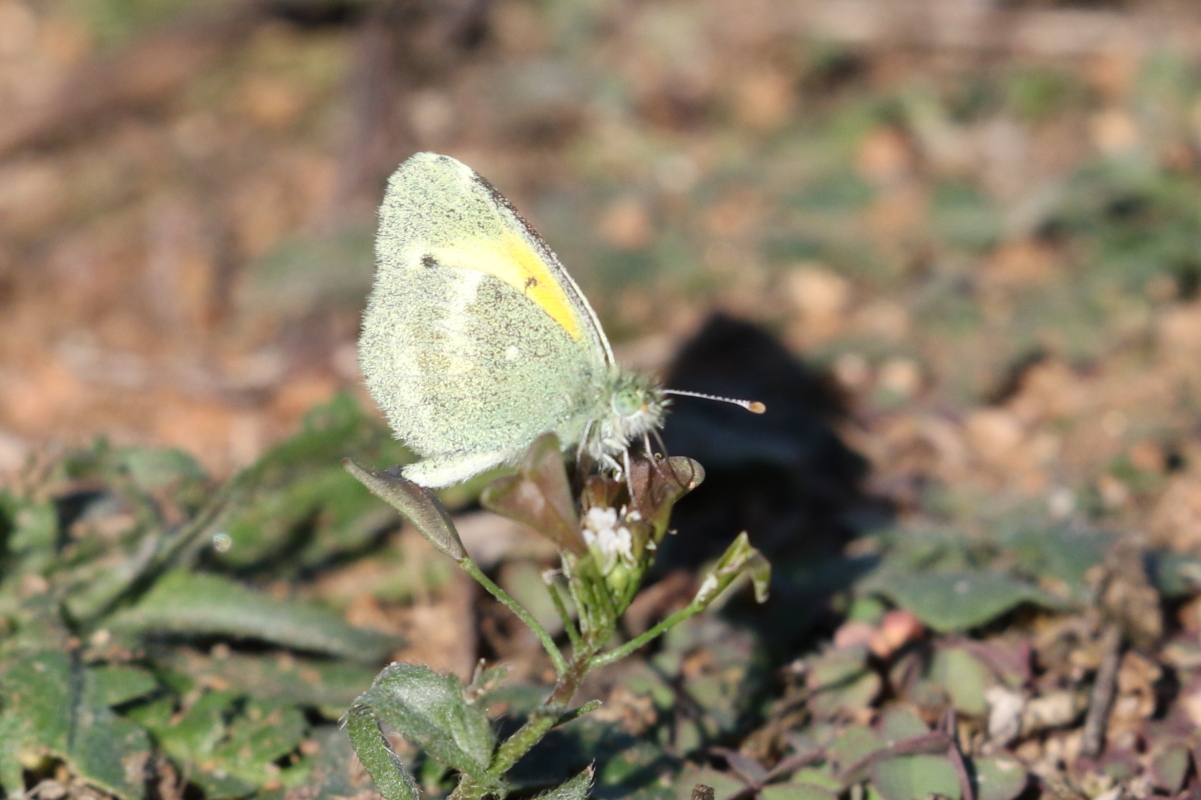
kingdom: Animalia
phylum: Arthropoda
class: Insecta
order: Lepidoptera
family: Pieridae
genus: Nathalis
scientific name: Nathalis iole
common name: Dainty sulphur
